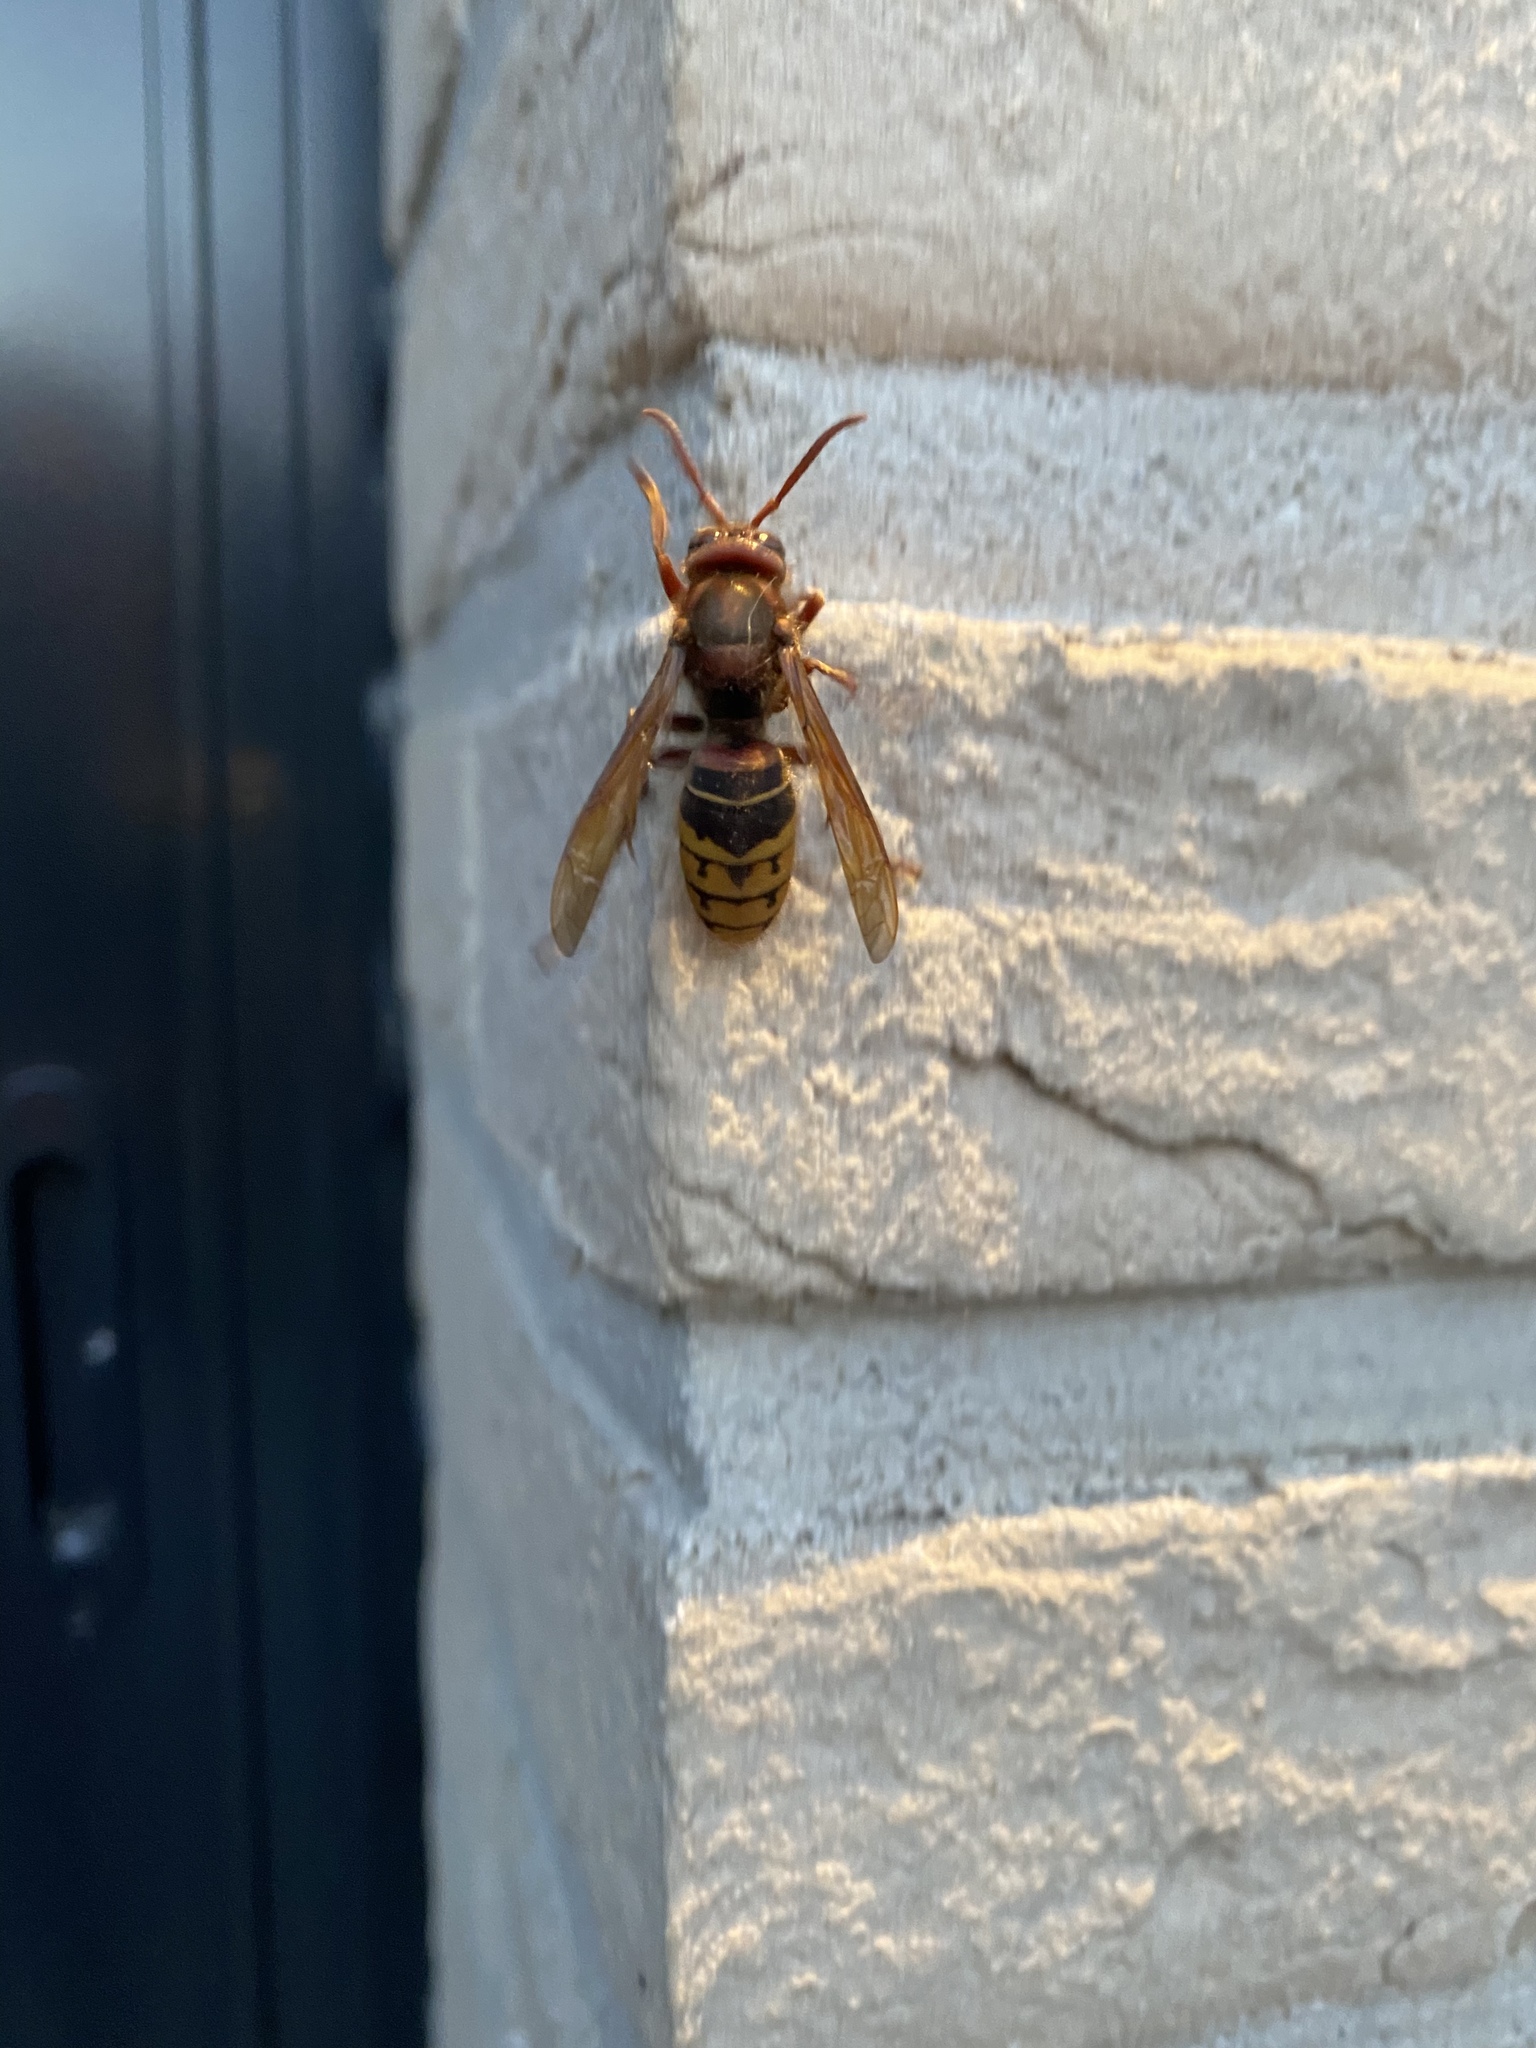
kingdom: Animalia
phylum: Arthropoda
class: Insecta
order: Hymenoptera
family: Vespidae
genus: Vespa
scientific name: Vespa crabro
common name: Hornet
